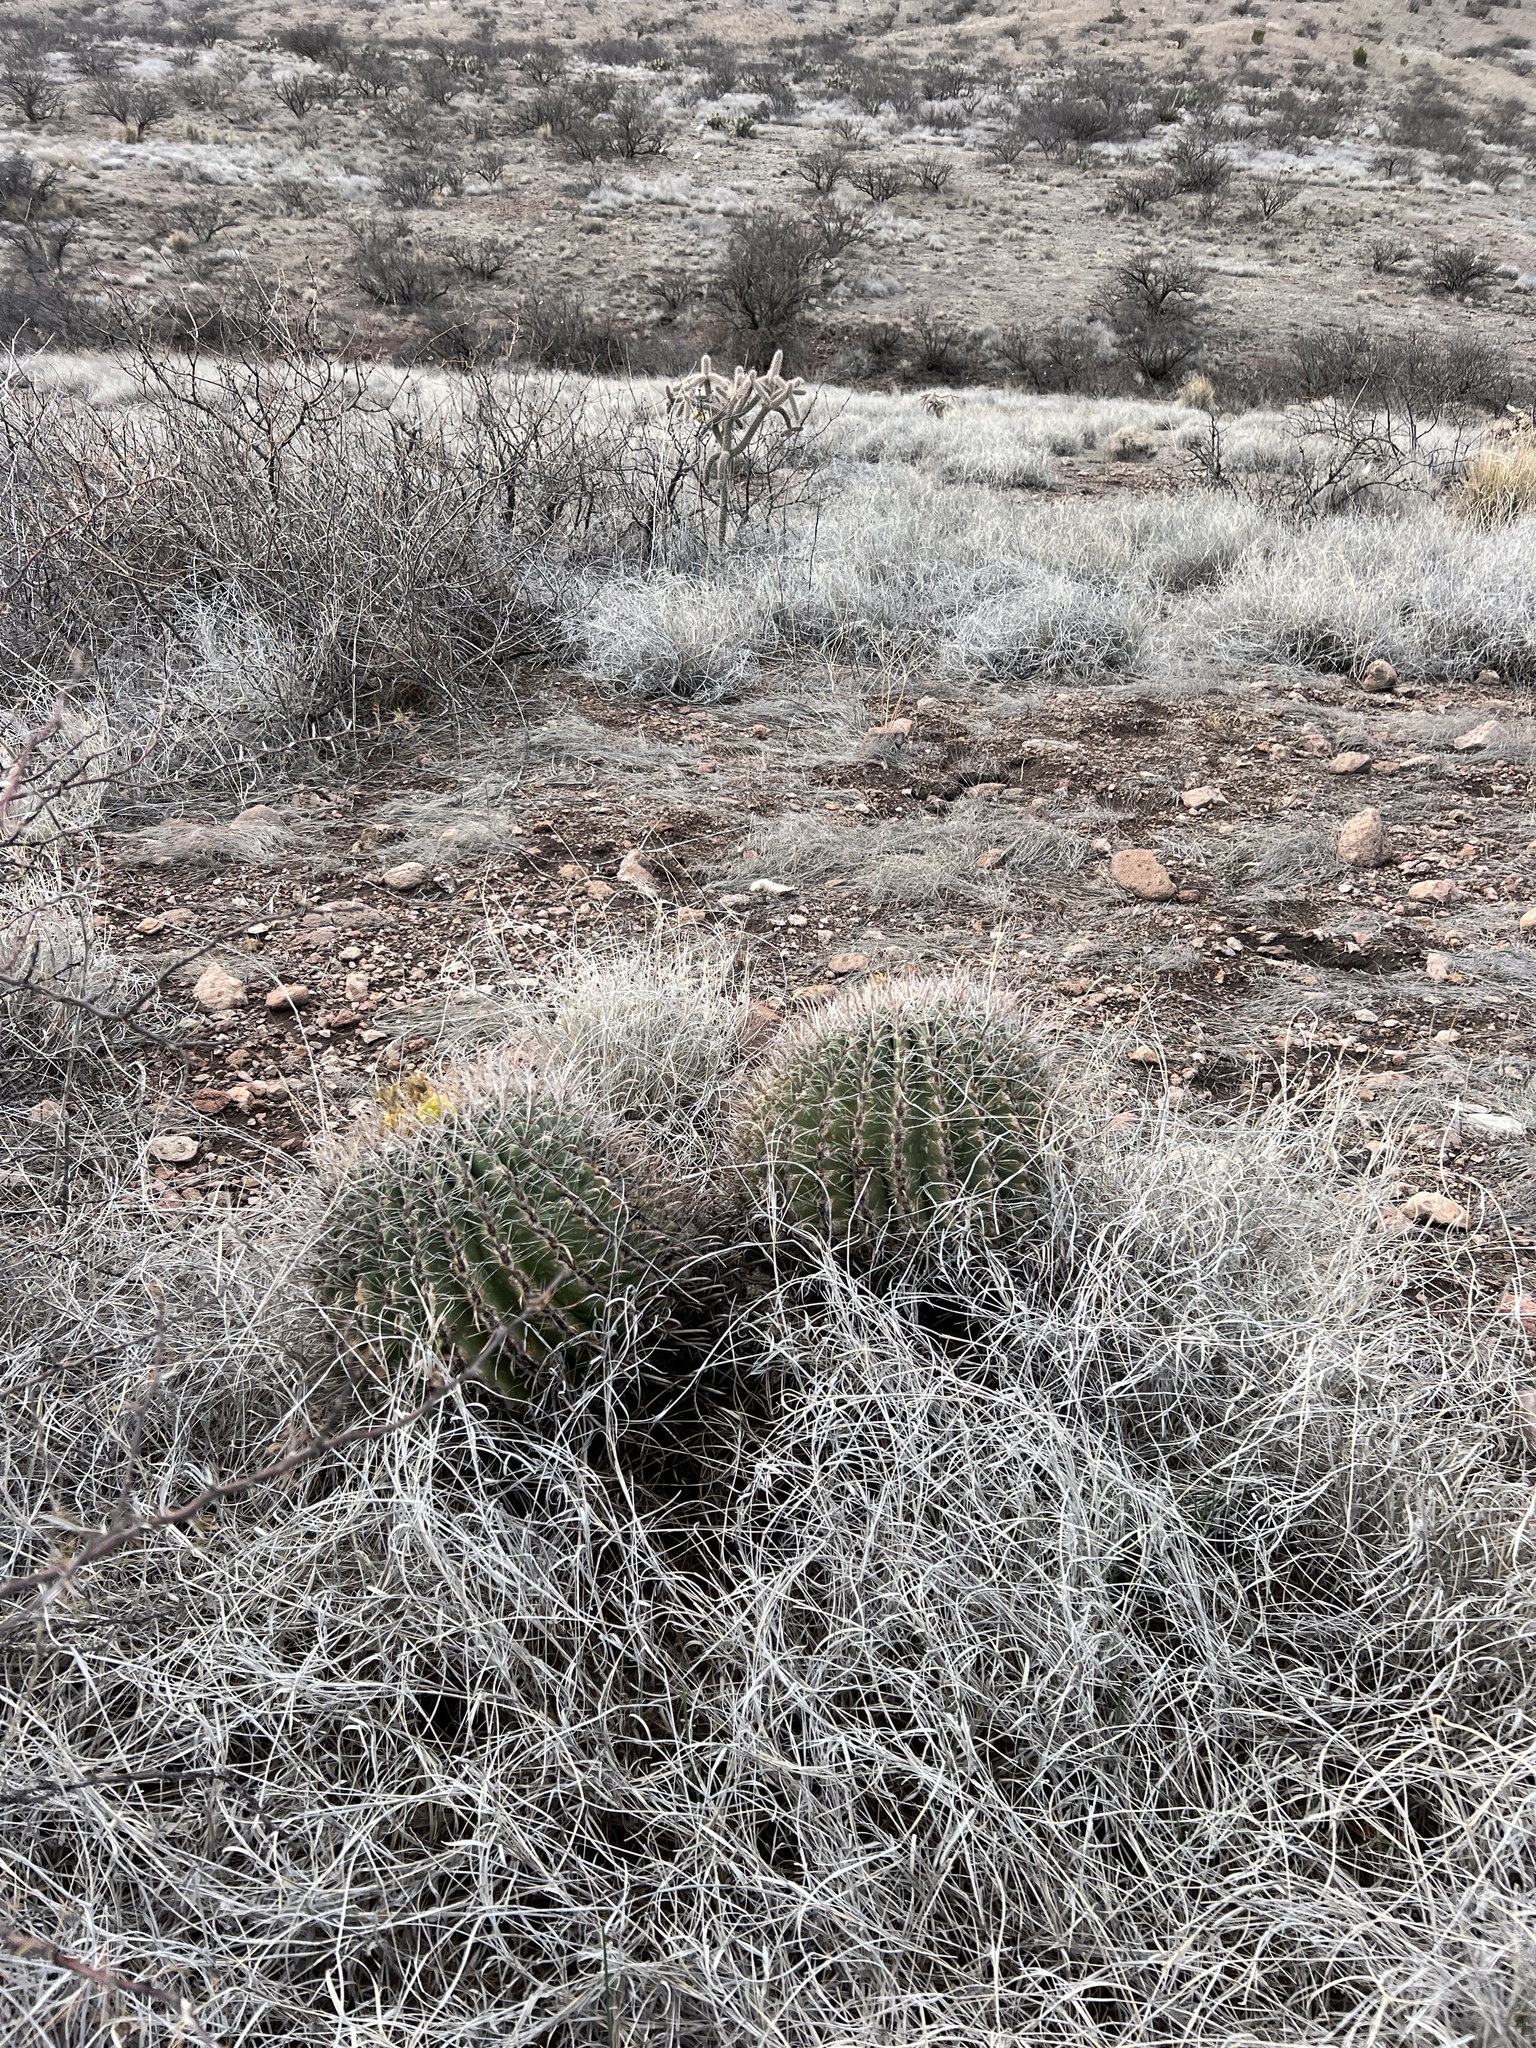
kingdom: Plantae
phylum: Tracheophyta
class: Magnoliopsida
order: Caryophyllales
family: Cactaceae
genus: Ferocactus
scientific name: Ferocactus wislizeni
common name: Candy barrel cactus
